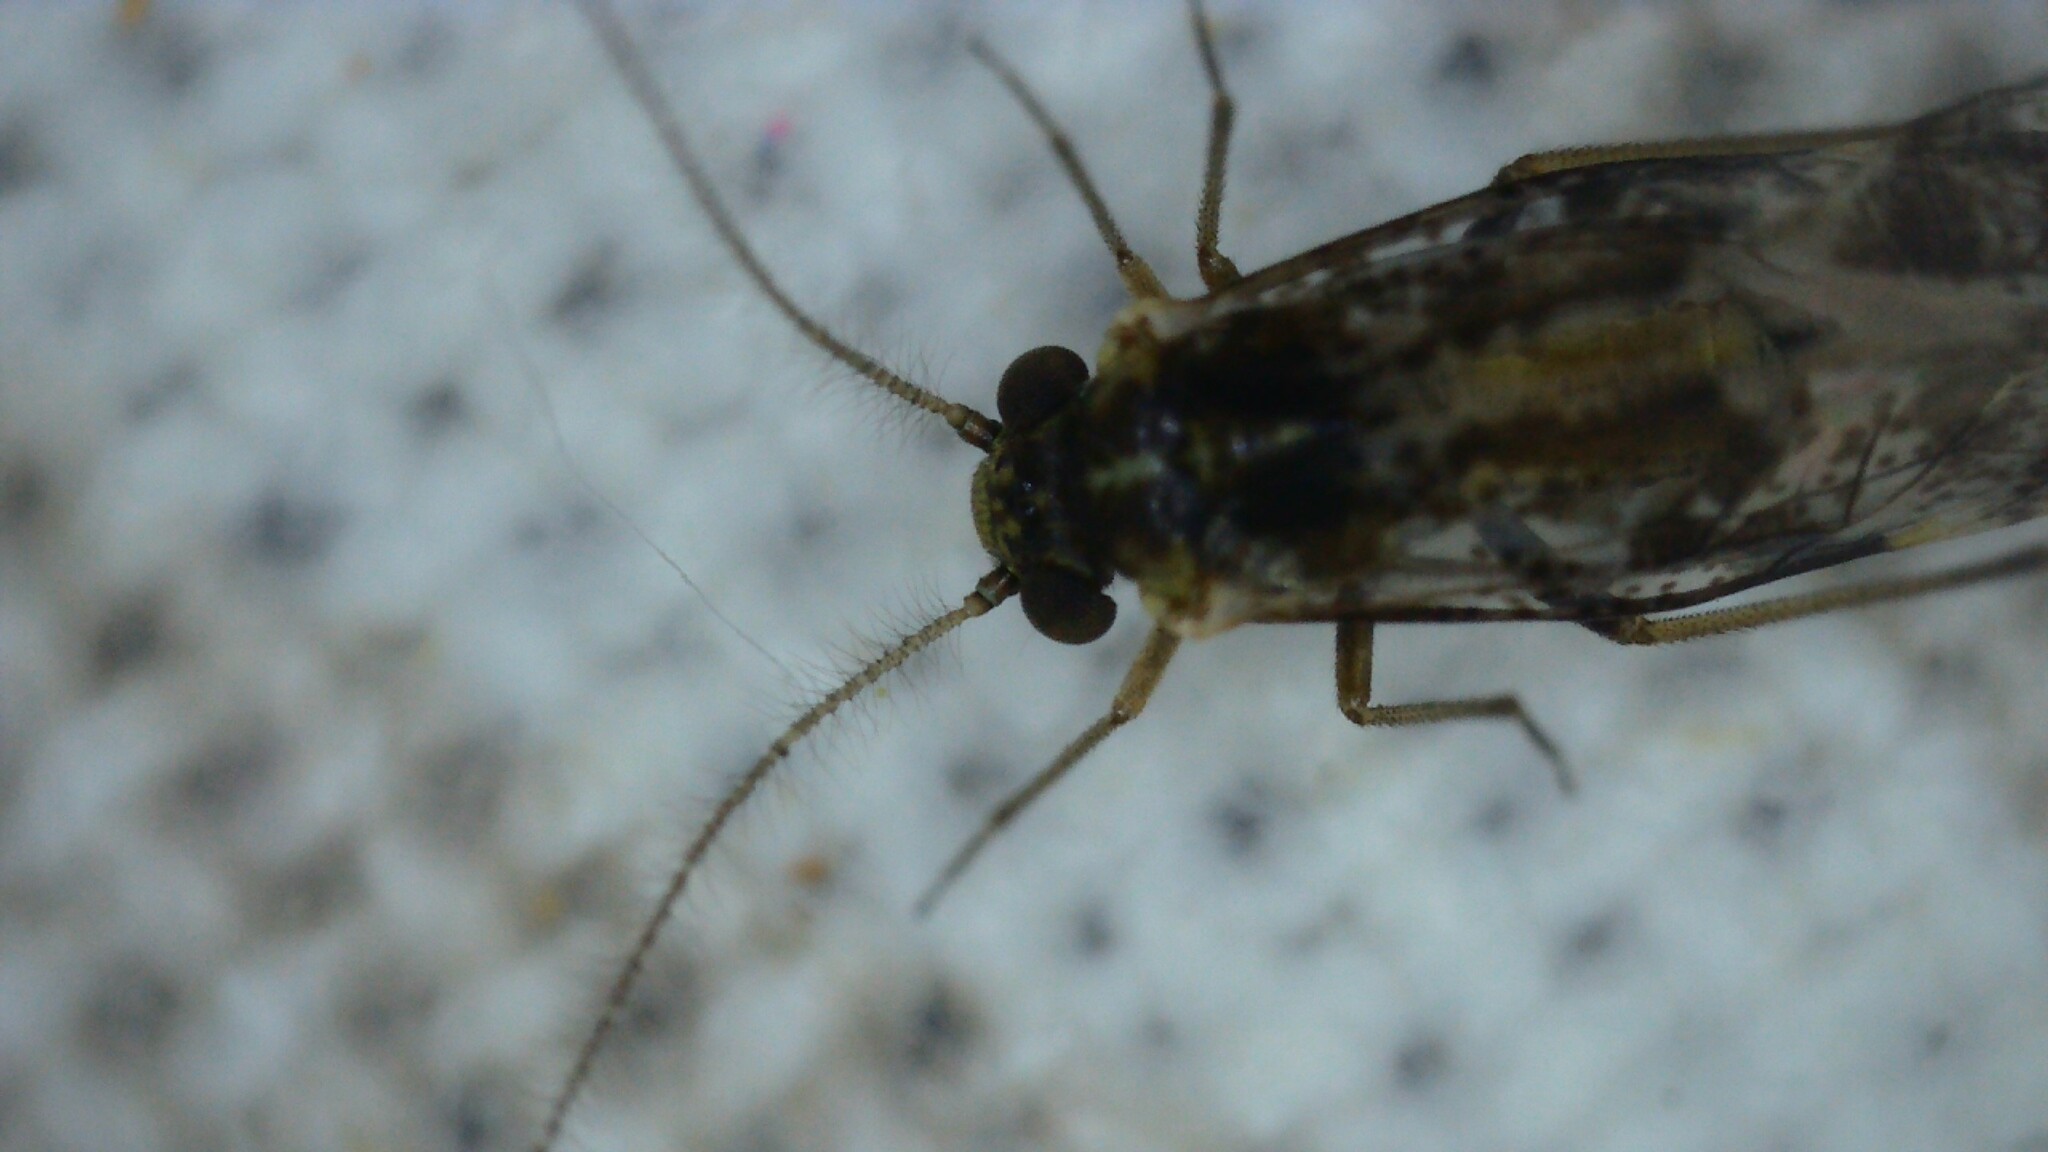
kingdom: Animalia
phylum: Arthropoda
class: Insecta
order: Psocodea
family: Psocidae
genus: Loensia
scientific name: Loensia fasciata
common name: Common bark louse
